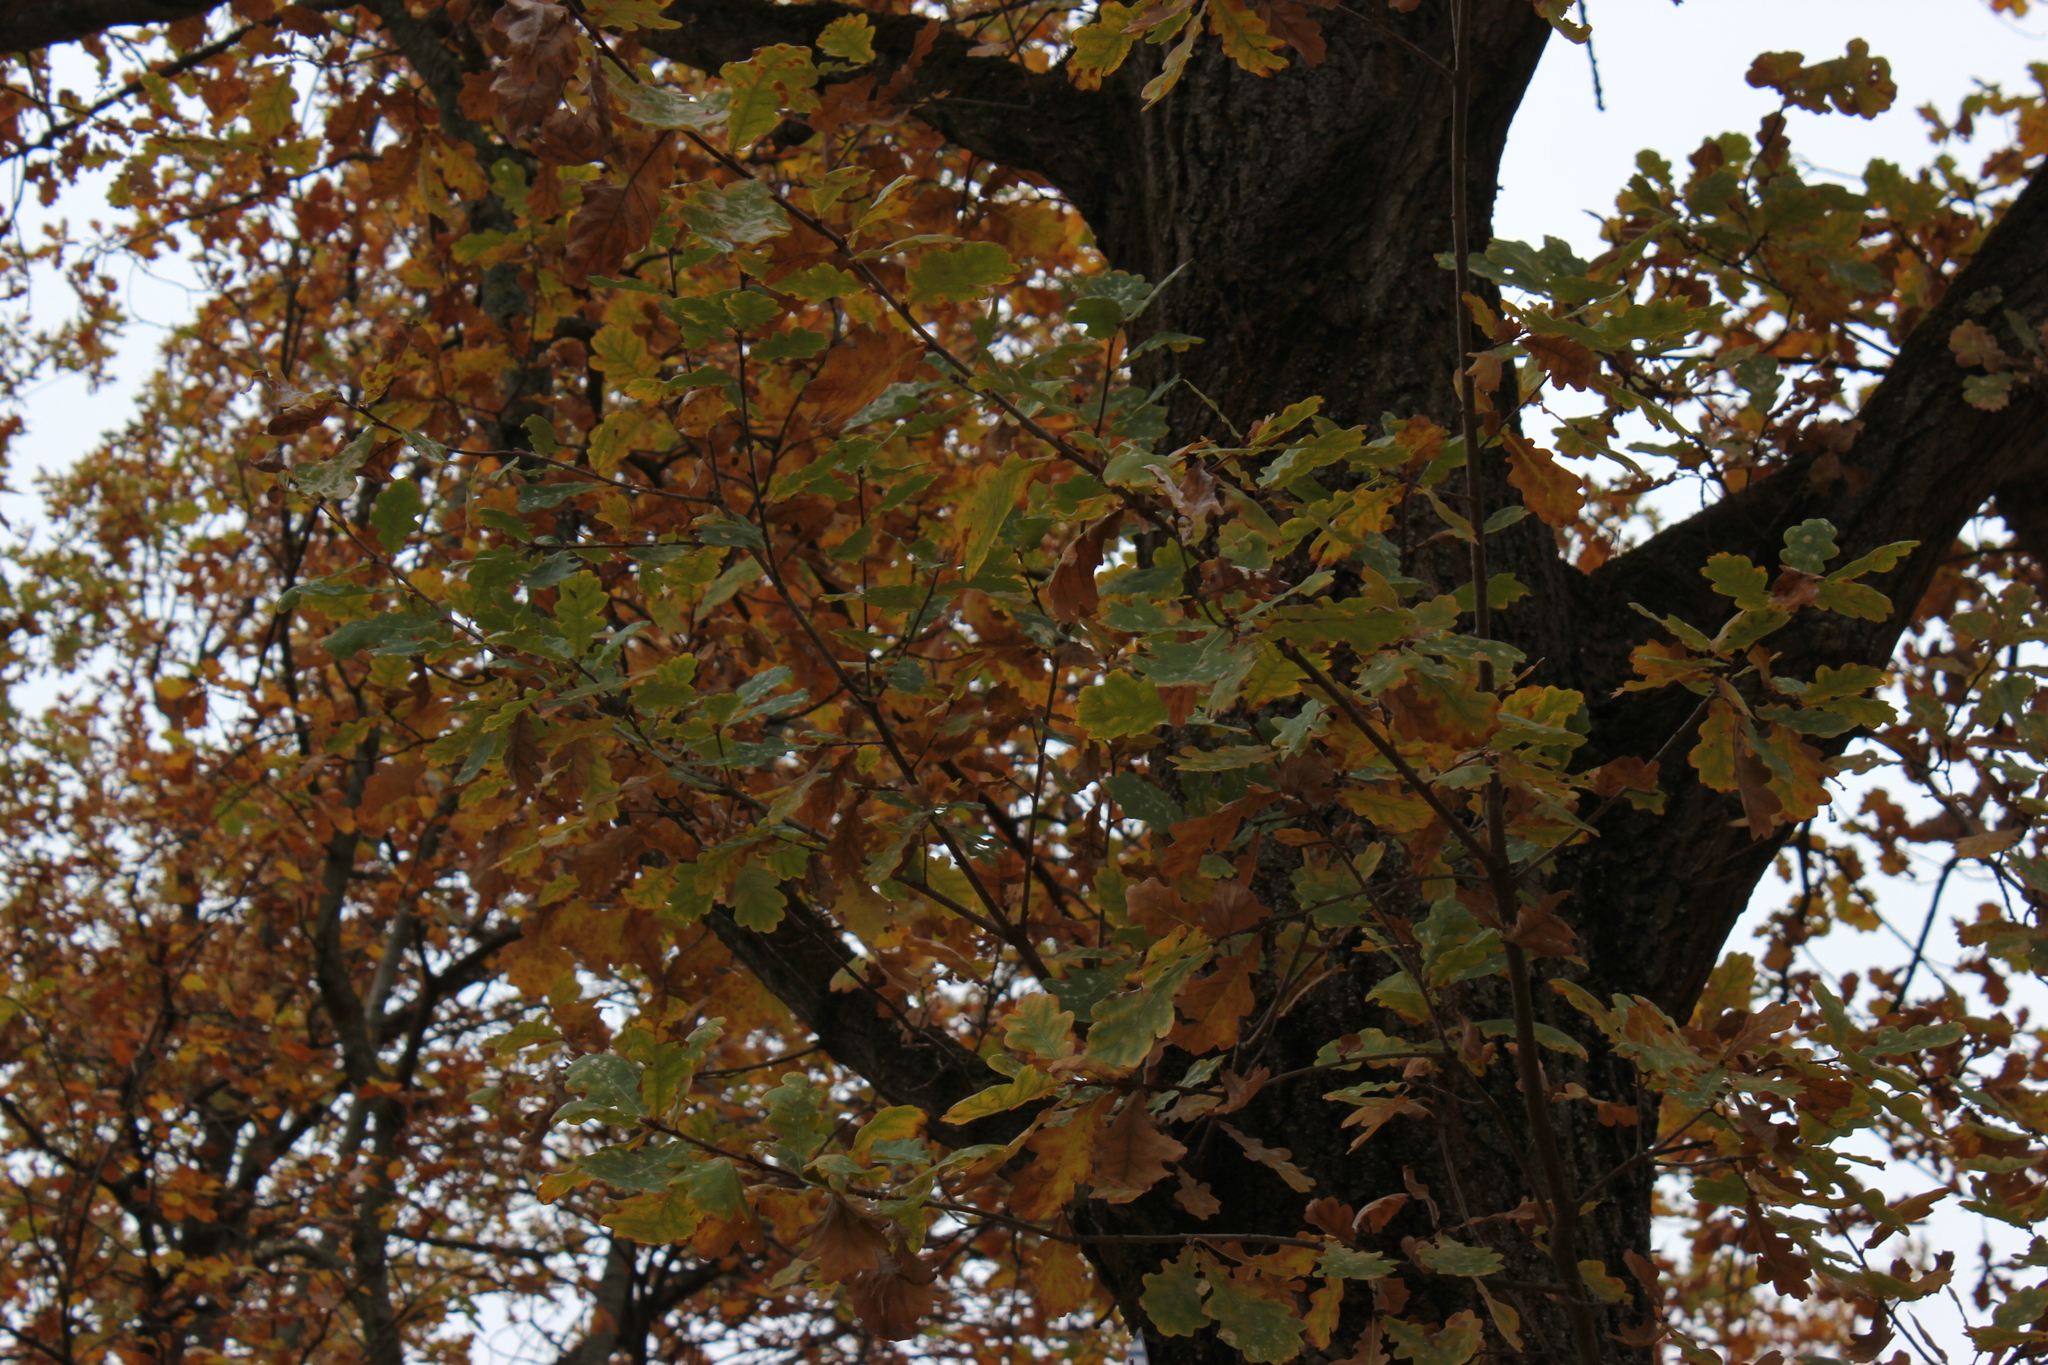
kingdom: Plantae
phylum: Tracheophyta
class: Magnoliopsida
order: Fagales
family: Fagaceae
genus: Quercus
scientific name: Quercus robur
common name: Pedunculate oak
